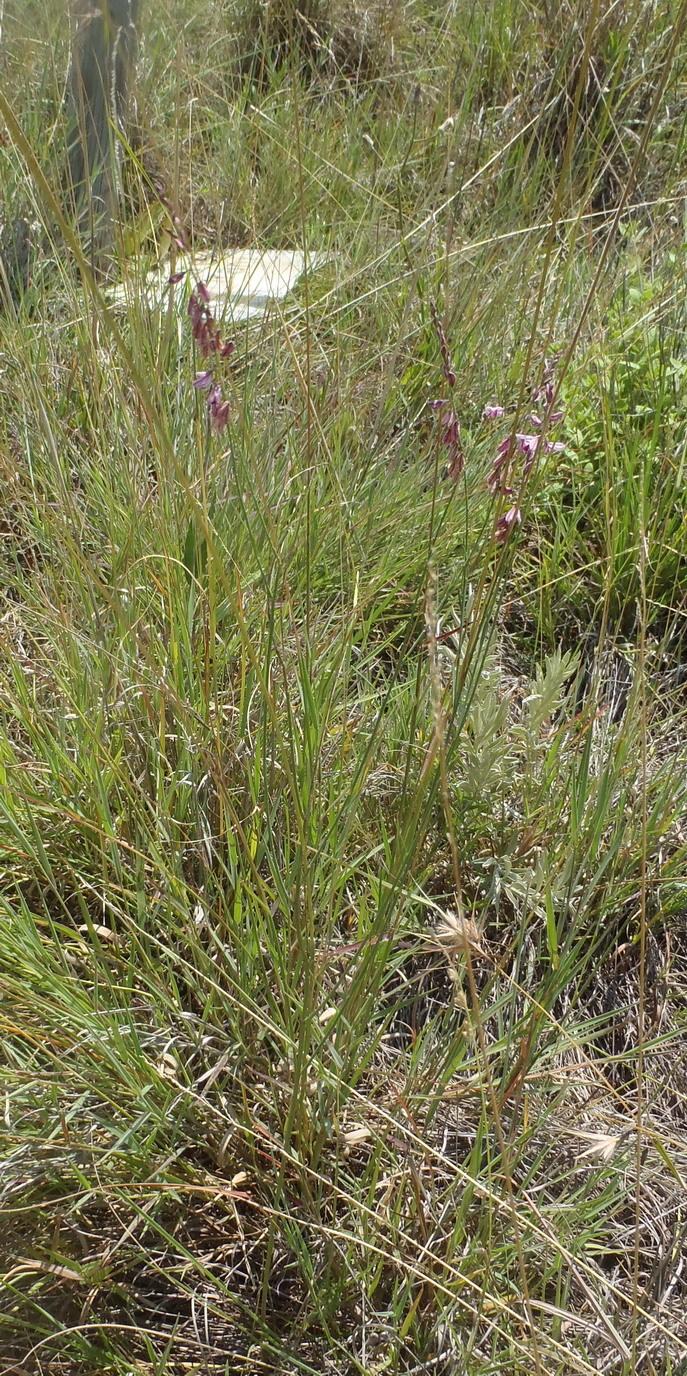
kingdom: Plantae
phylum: Tracheophyta
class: Magnoliopsida
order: Fabales
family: Polygalaceae
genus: Polygala
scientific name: Polygala hottentotta
